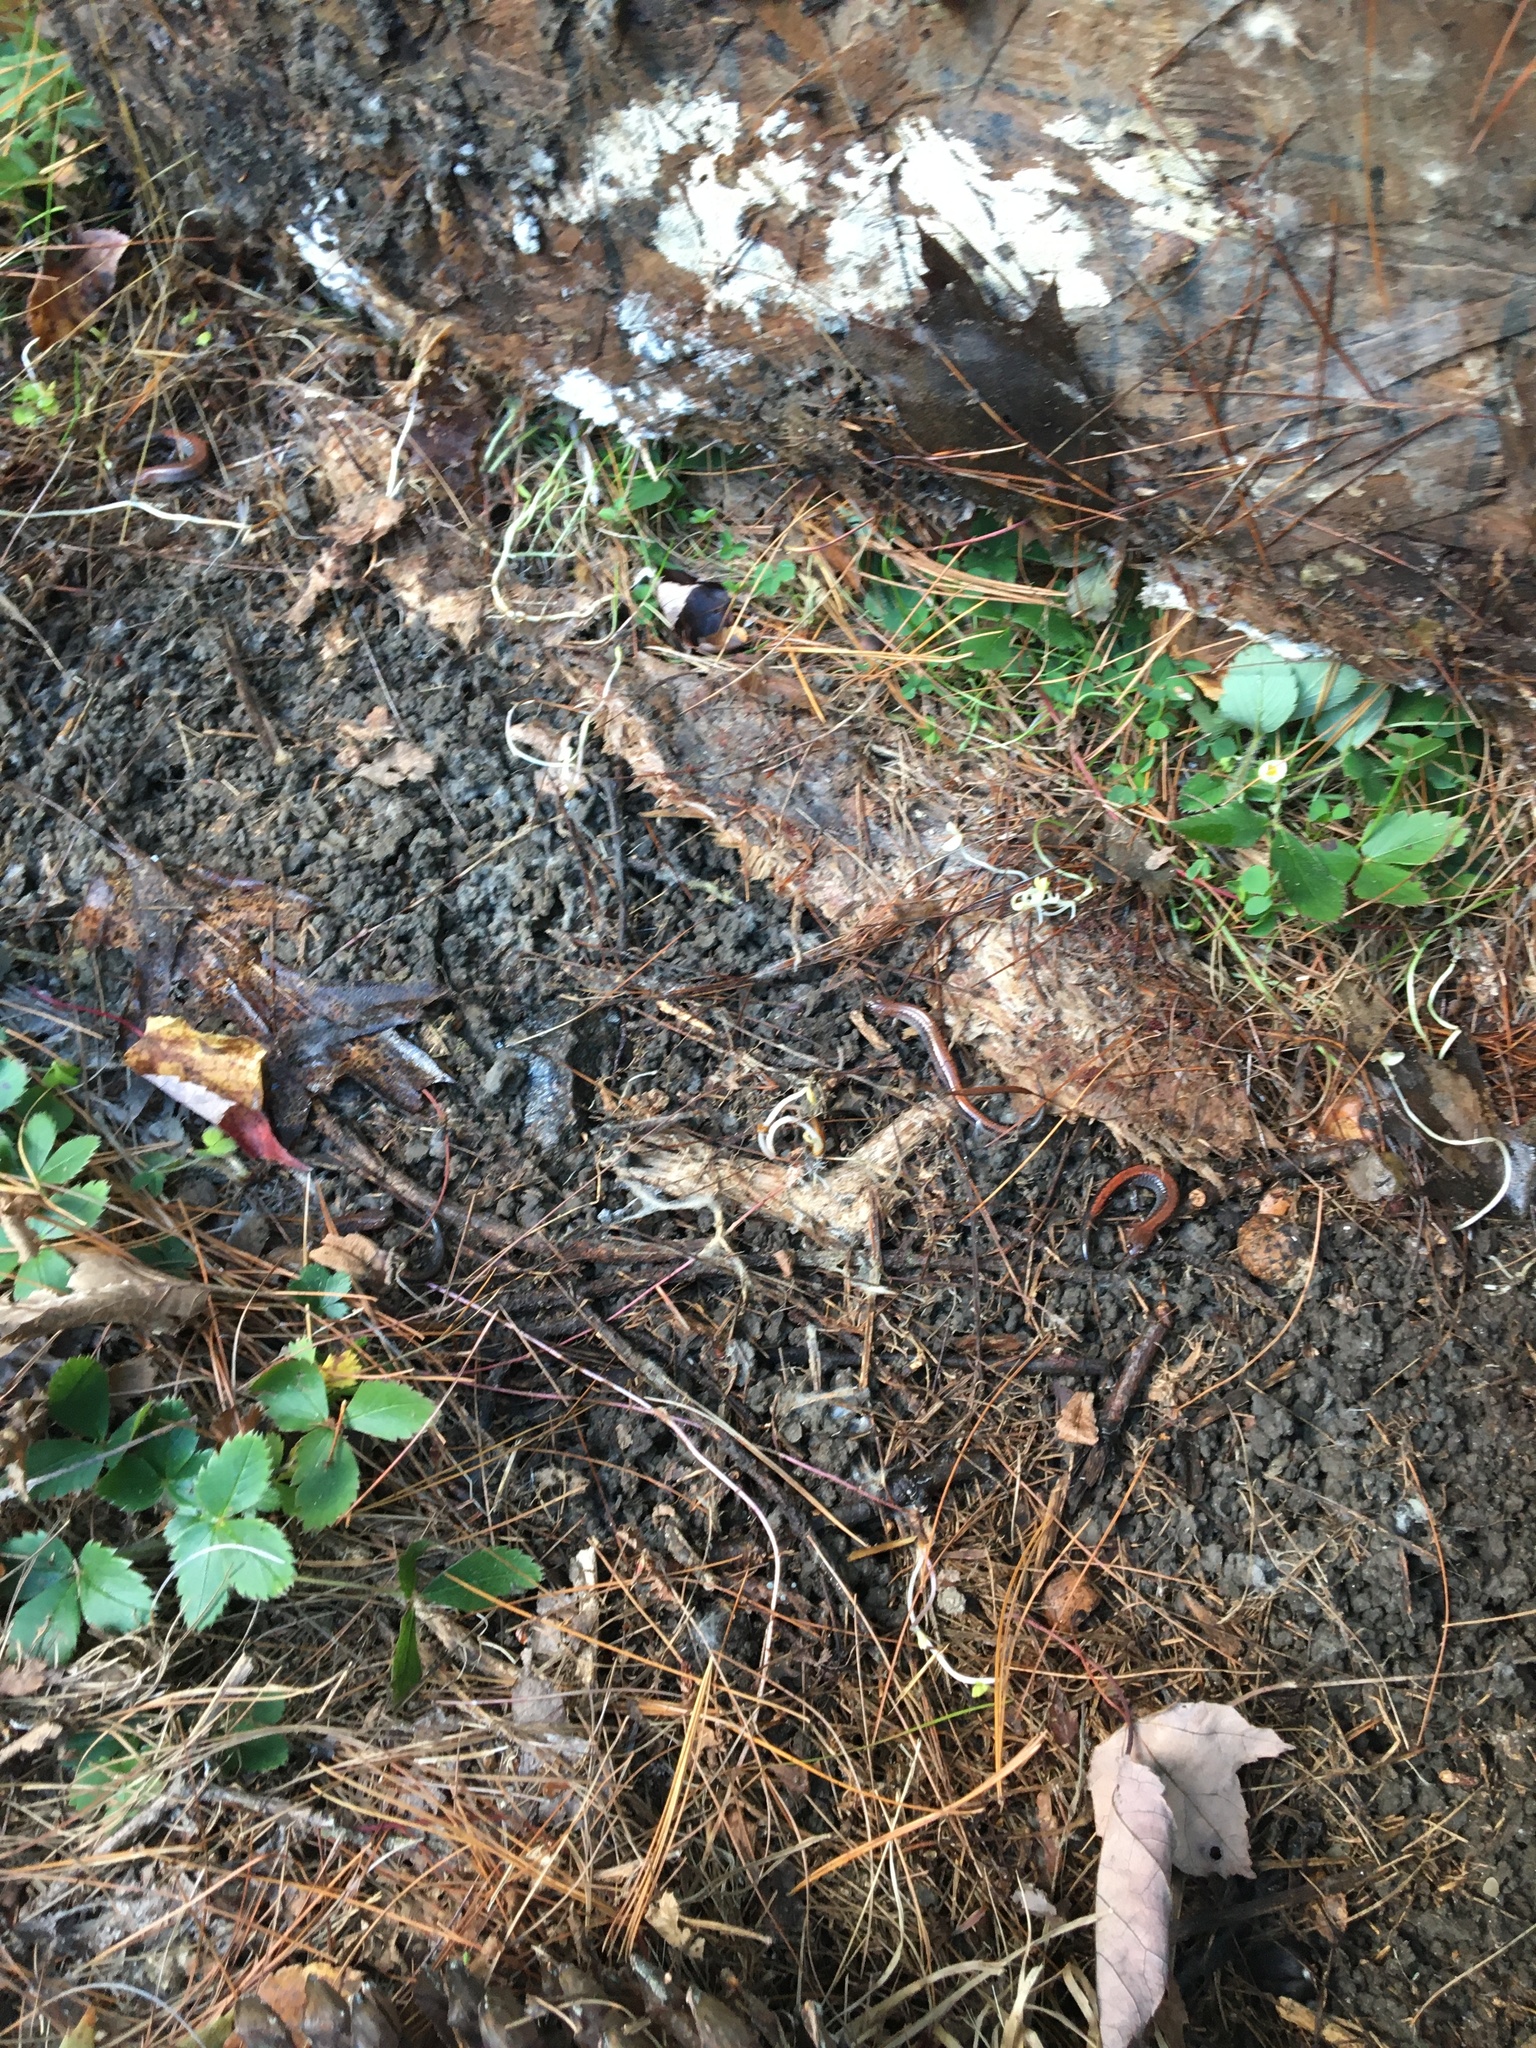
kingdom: Animalia
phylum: Chordata
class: Amphibia
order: Caudata
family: Plethodontidae
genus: Plethodon
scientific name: Plethodon cinereus
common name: Redback salamander
